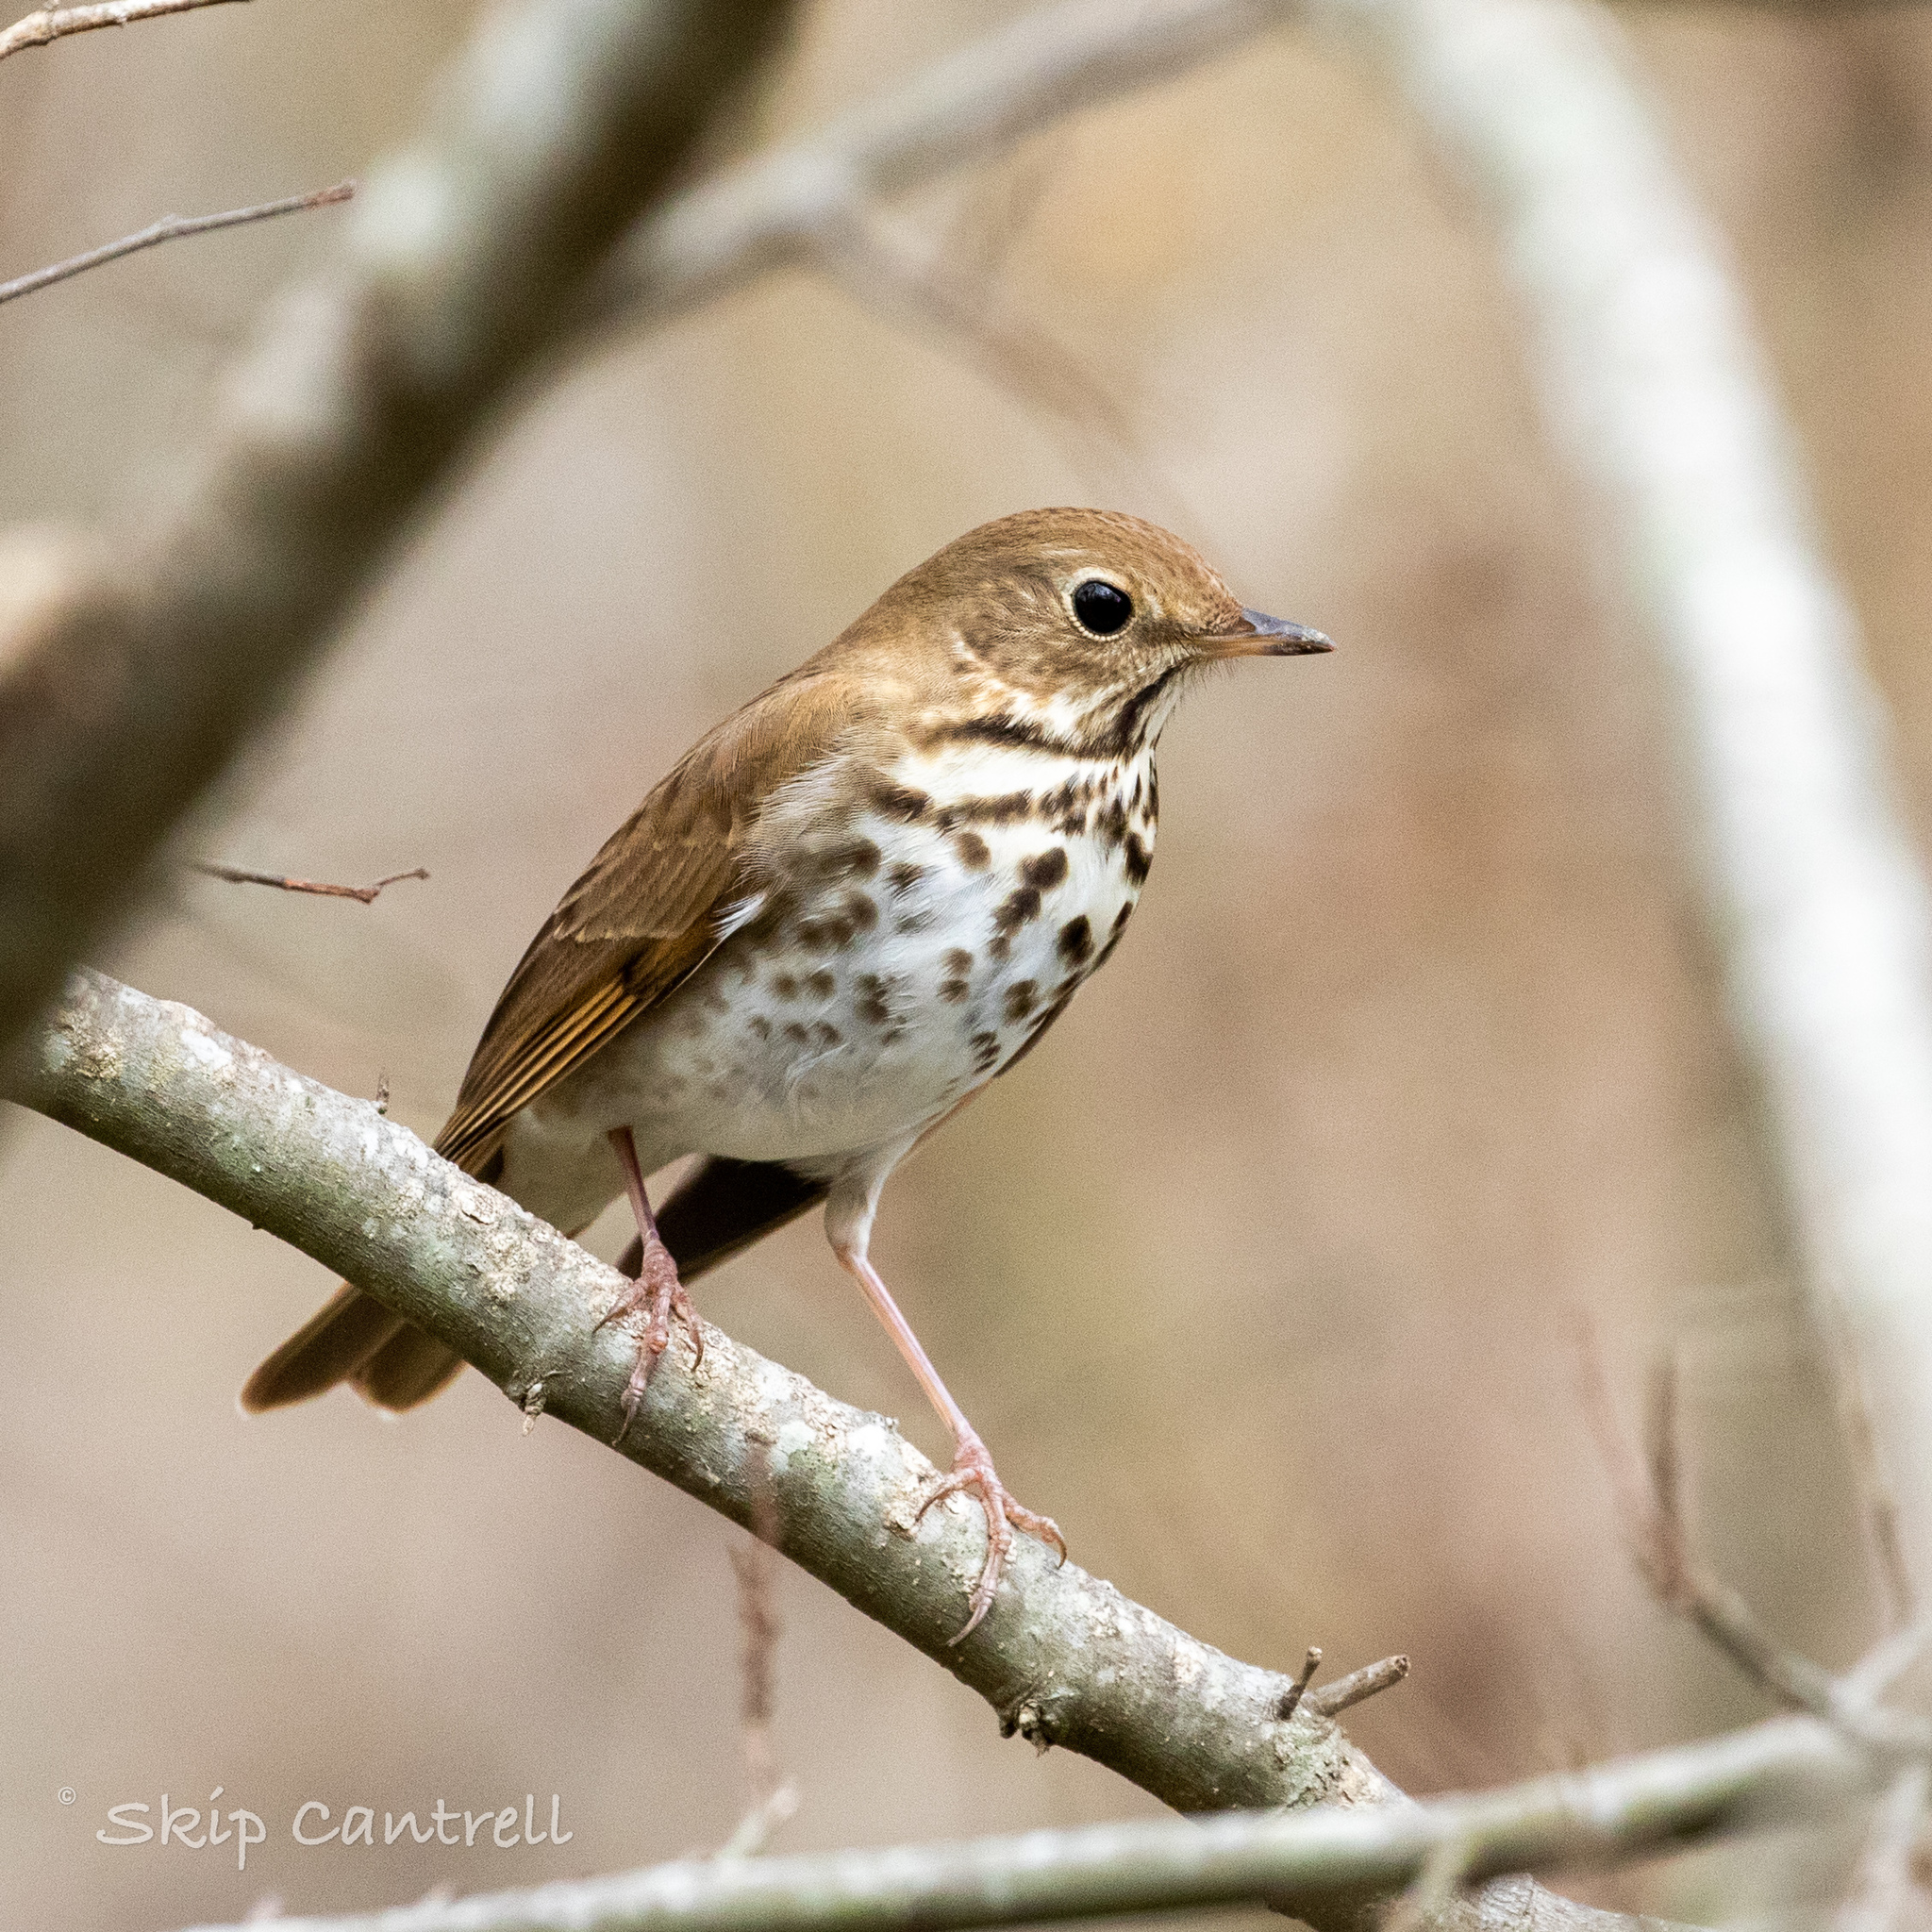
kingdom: Animalia
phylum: Chordata
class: Aves
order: Passeriformes
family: Turdidae
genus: Catharus
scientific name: Catharus guttatus
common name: Hermit thrush
